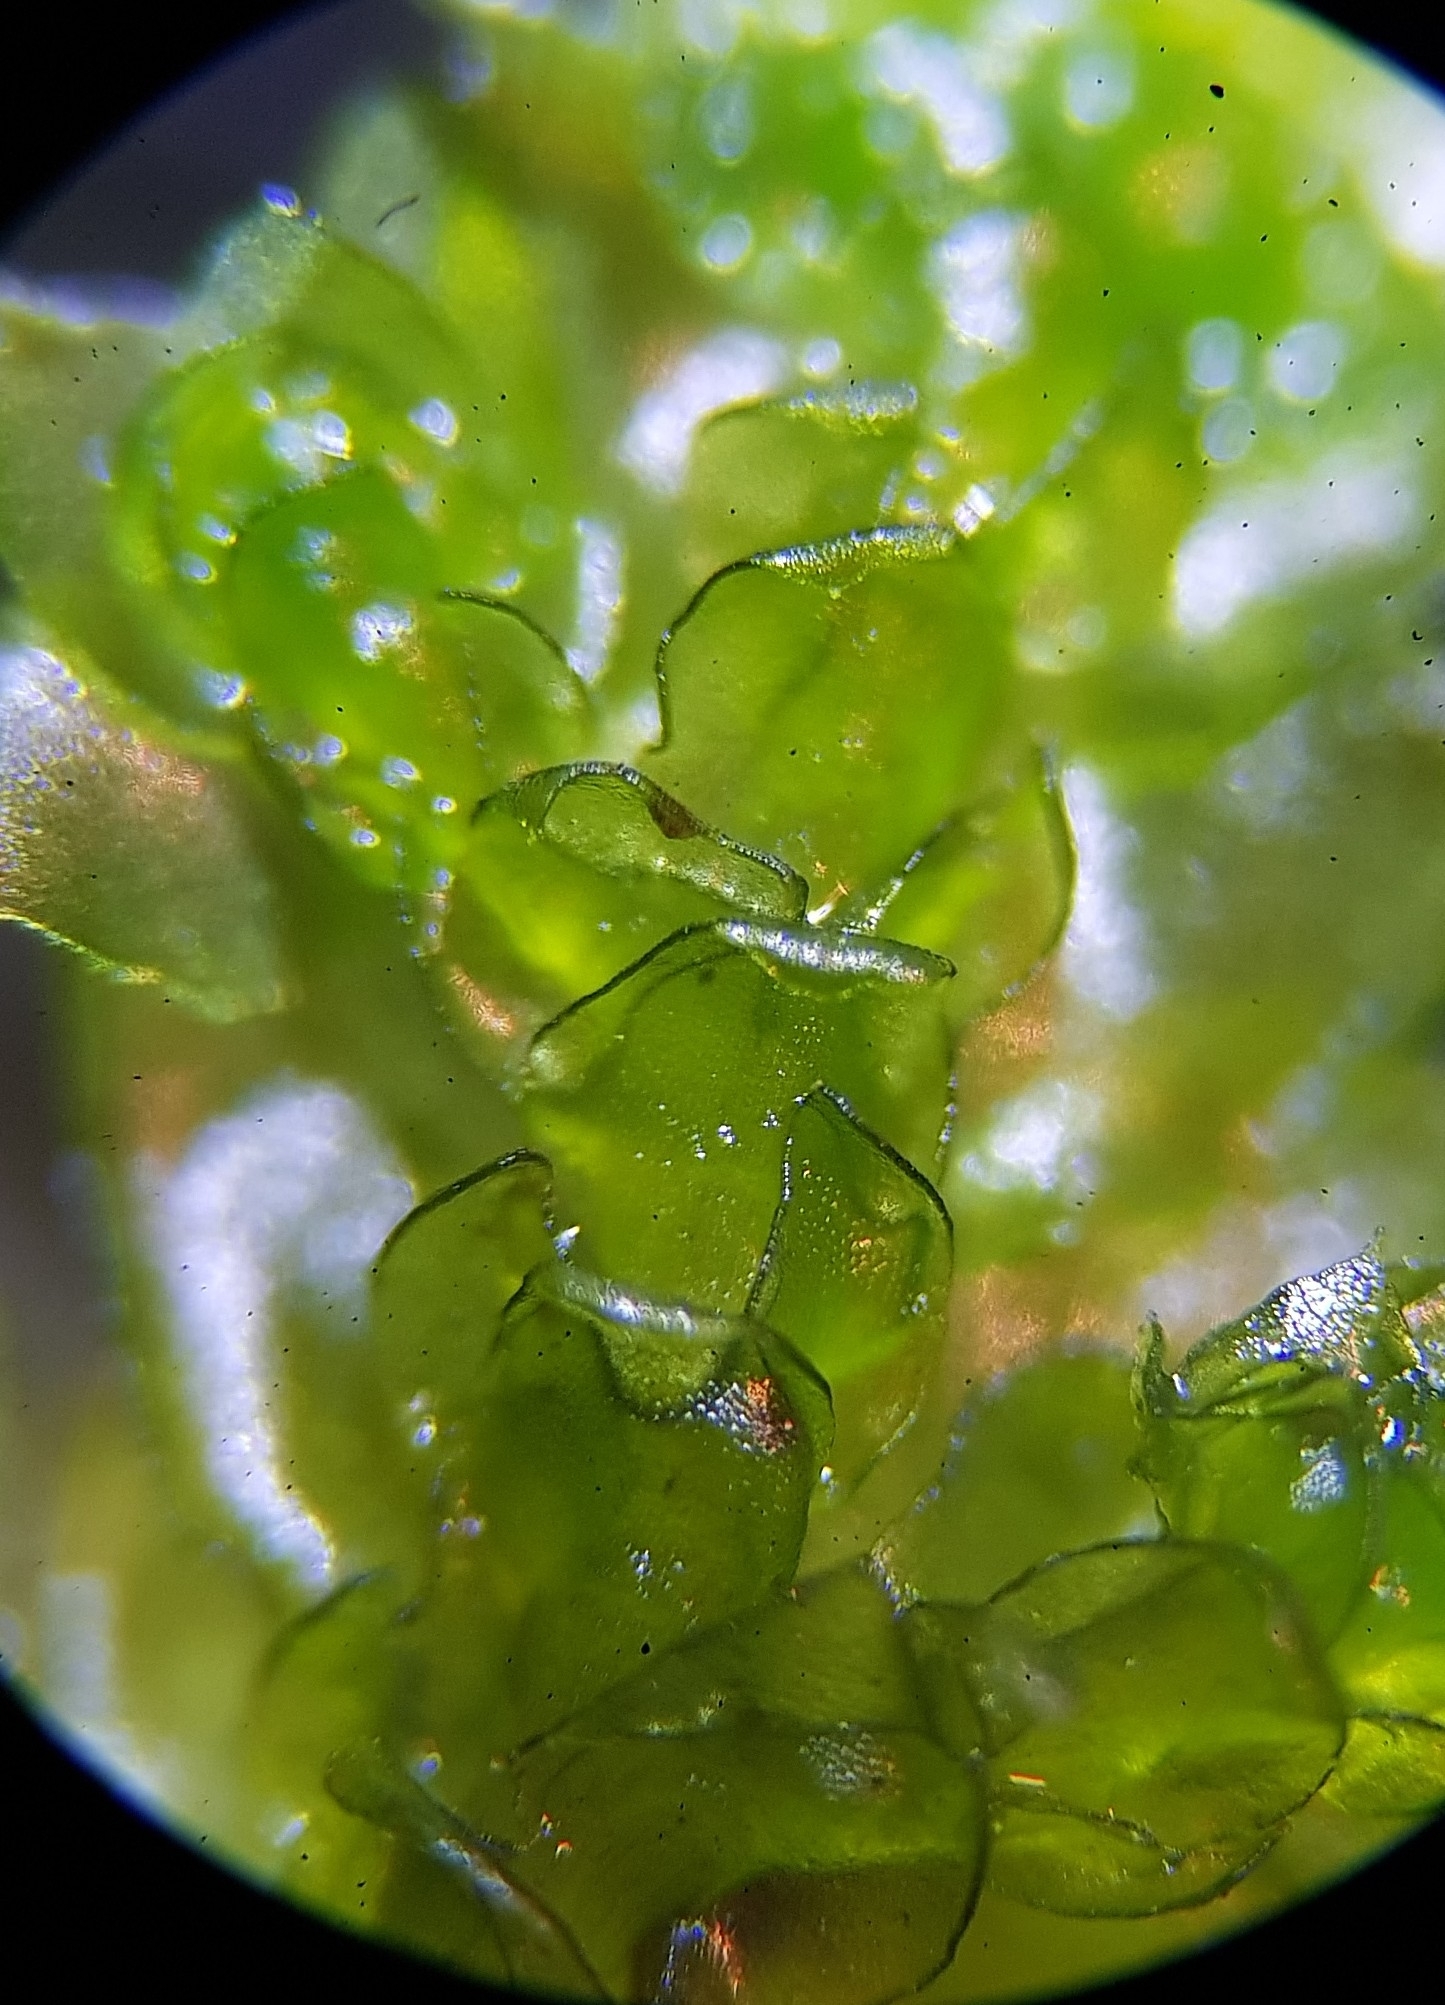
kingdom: Plantae
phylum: Marchantiophyta
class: Jungermanniopsida
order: Porellales
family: Porellaceae
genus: Porella
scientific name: Porella platyphylla
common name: Wall scalewort
